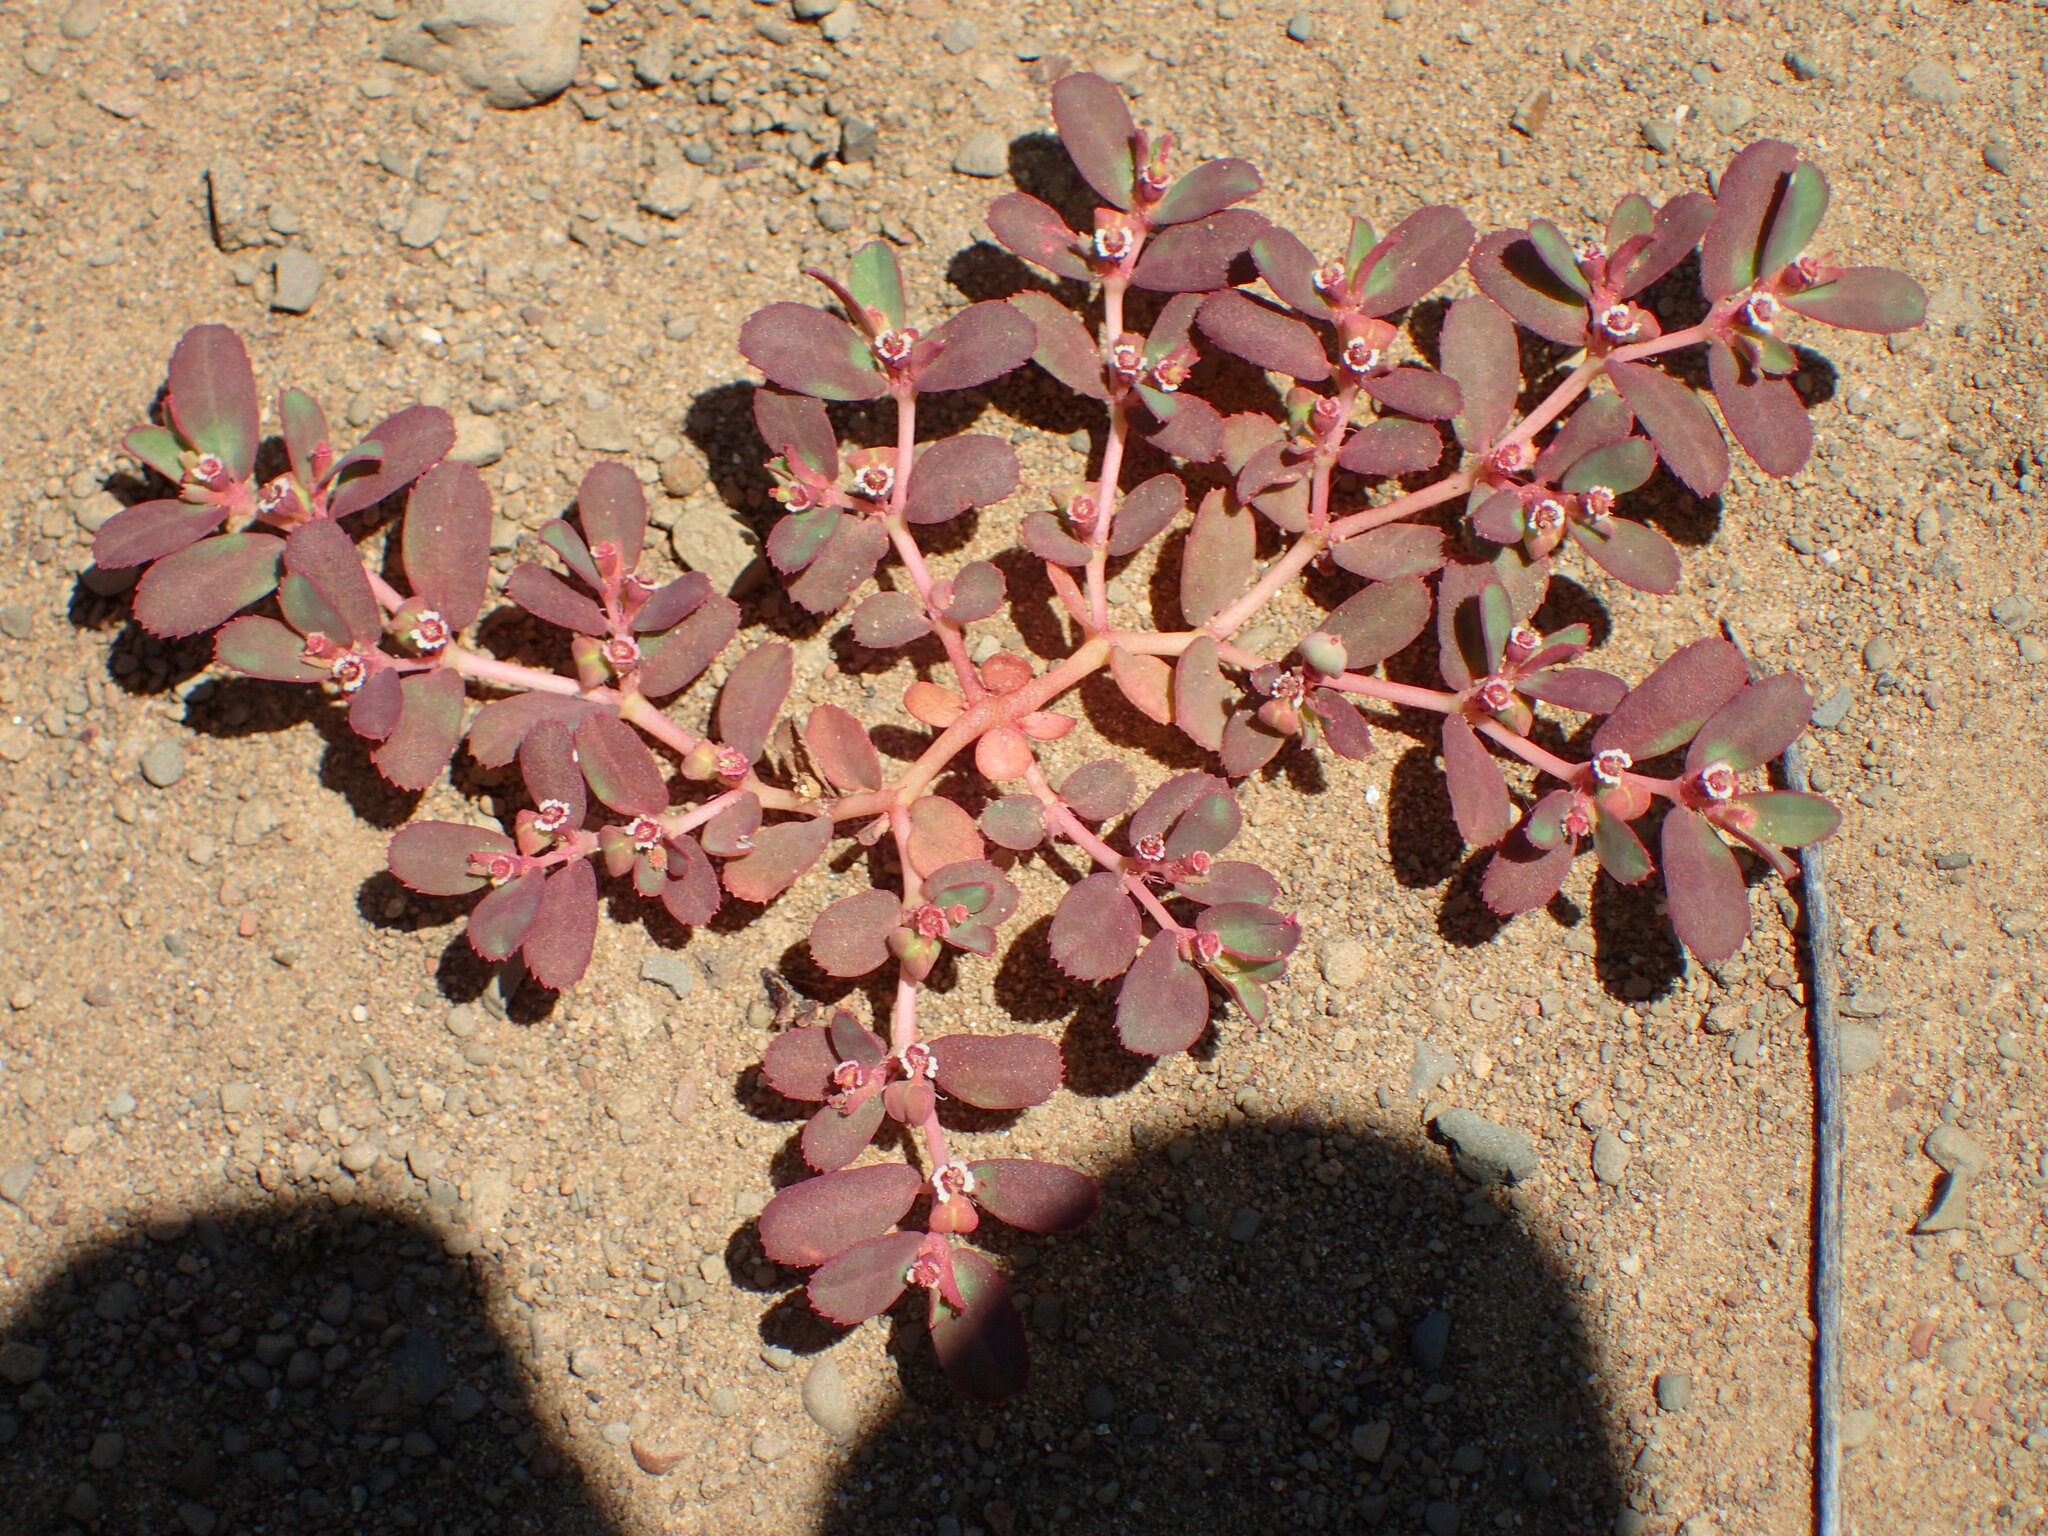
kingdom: Plantae
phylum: Tracheophyta
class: Magnoliopsida
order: Malpighiales
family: Euphorbiaceae
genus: Euphorbia
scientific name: Euphorbia serpillifolia
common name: Thyme-leaf spurge
